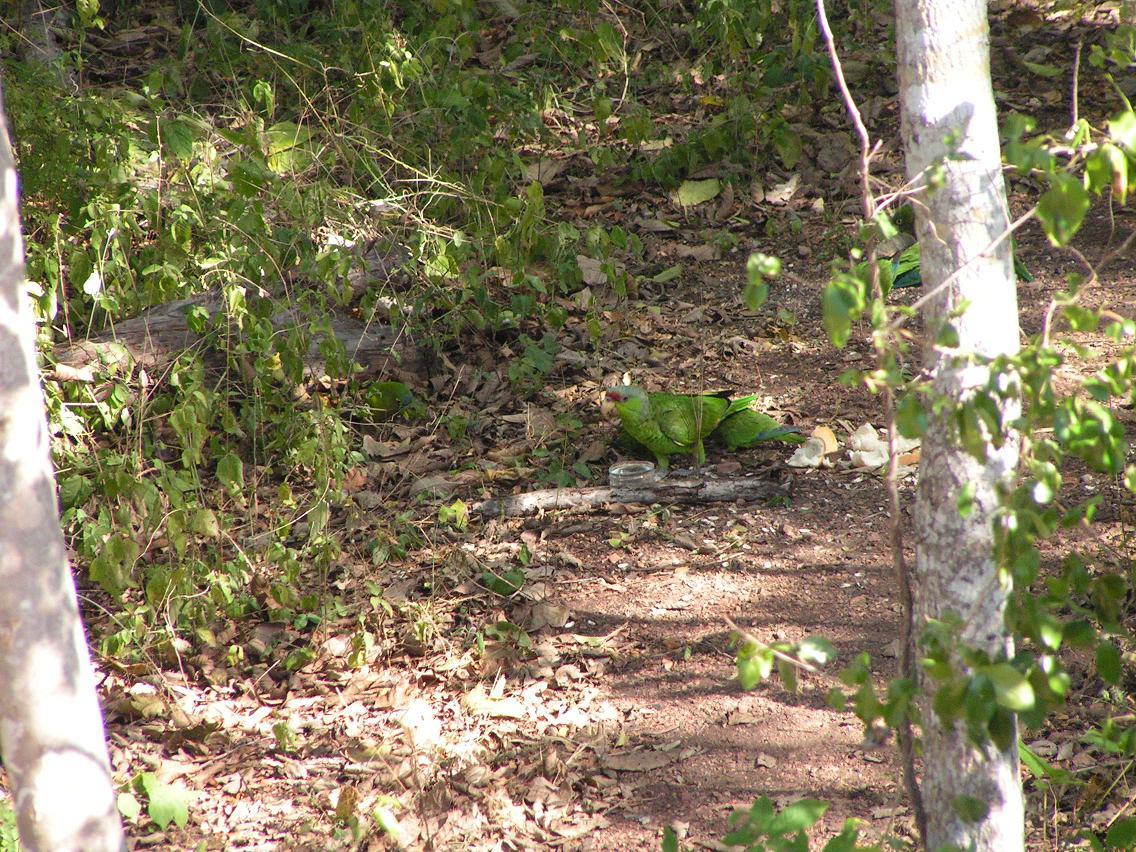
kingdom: Animalia
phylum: Chordata
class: Aves
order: Psittaciformes
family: Psittacidae
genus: Amazona
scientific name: Amazona finschi
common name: Lilac-crowned amazon
